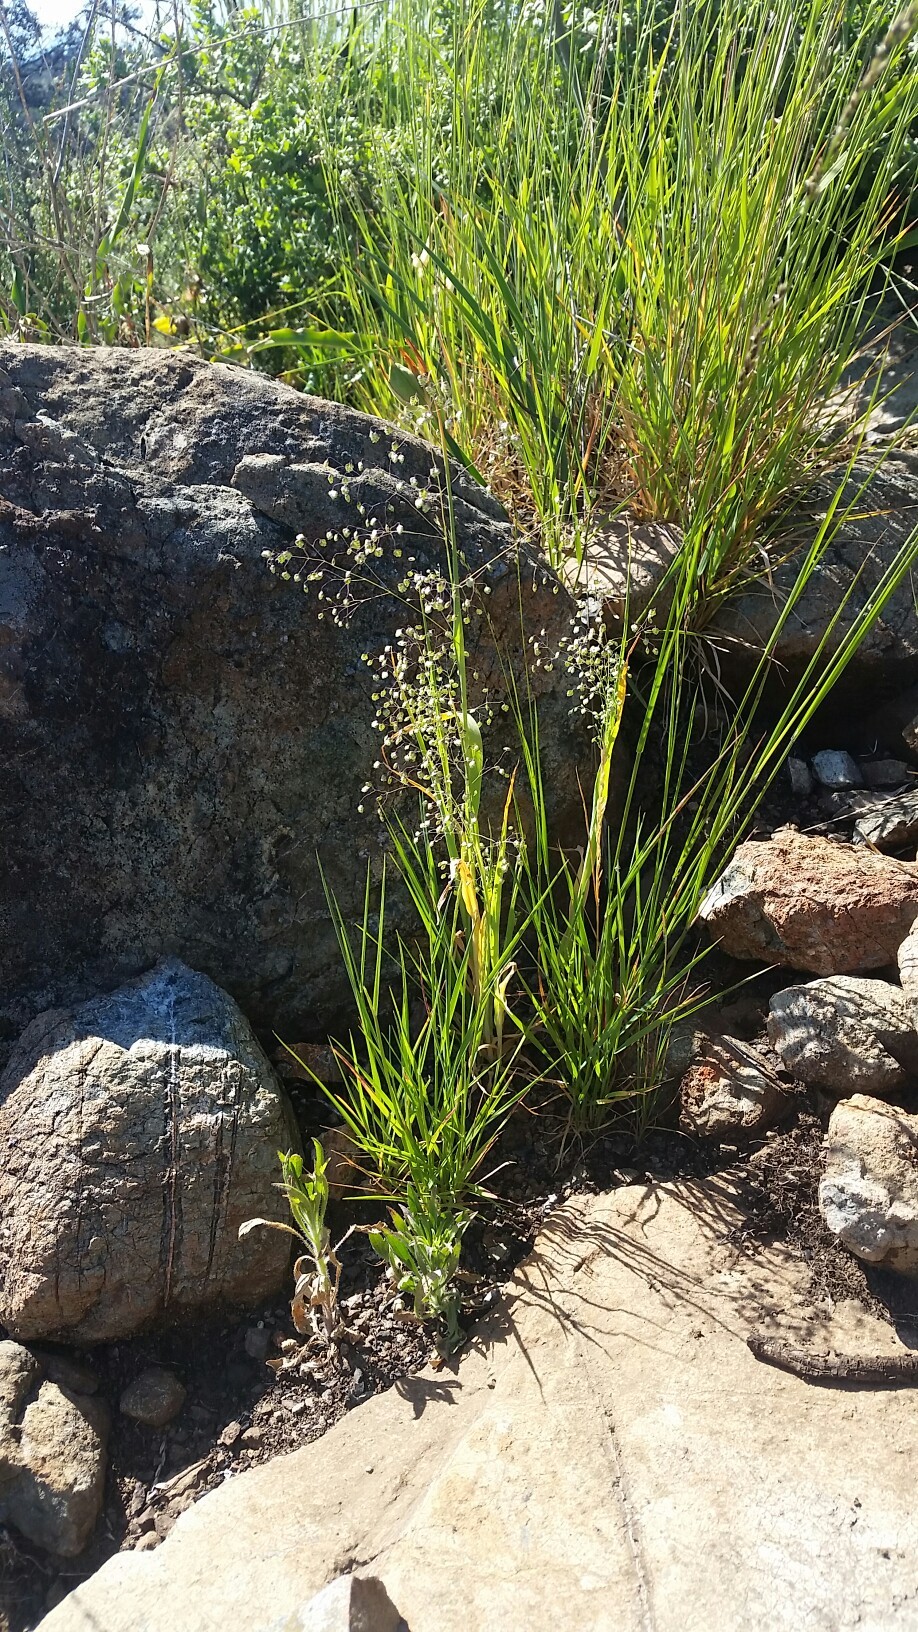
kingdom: Plantae
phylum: Tracheophyta
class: Liliopsida
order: Poales
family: Poaceae
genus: Briza
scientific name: Briza minor
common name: Lesser quaking-grass
